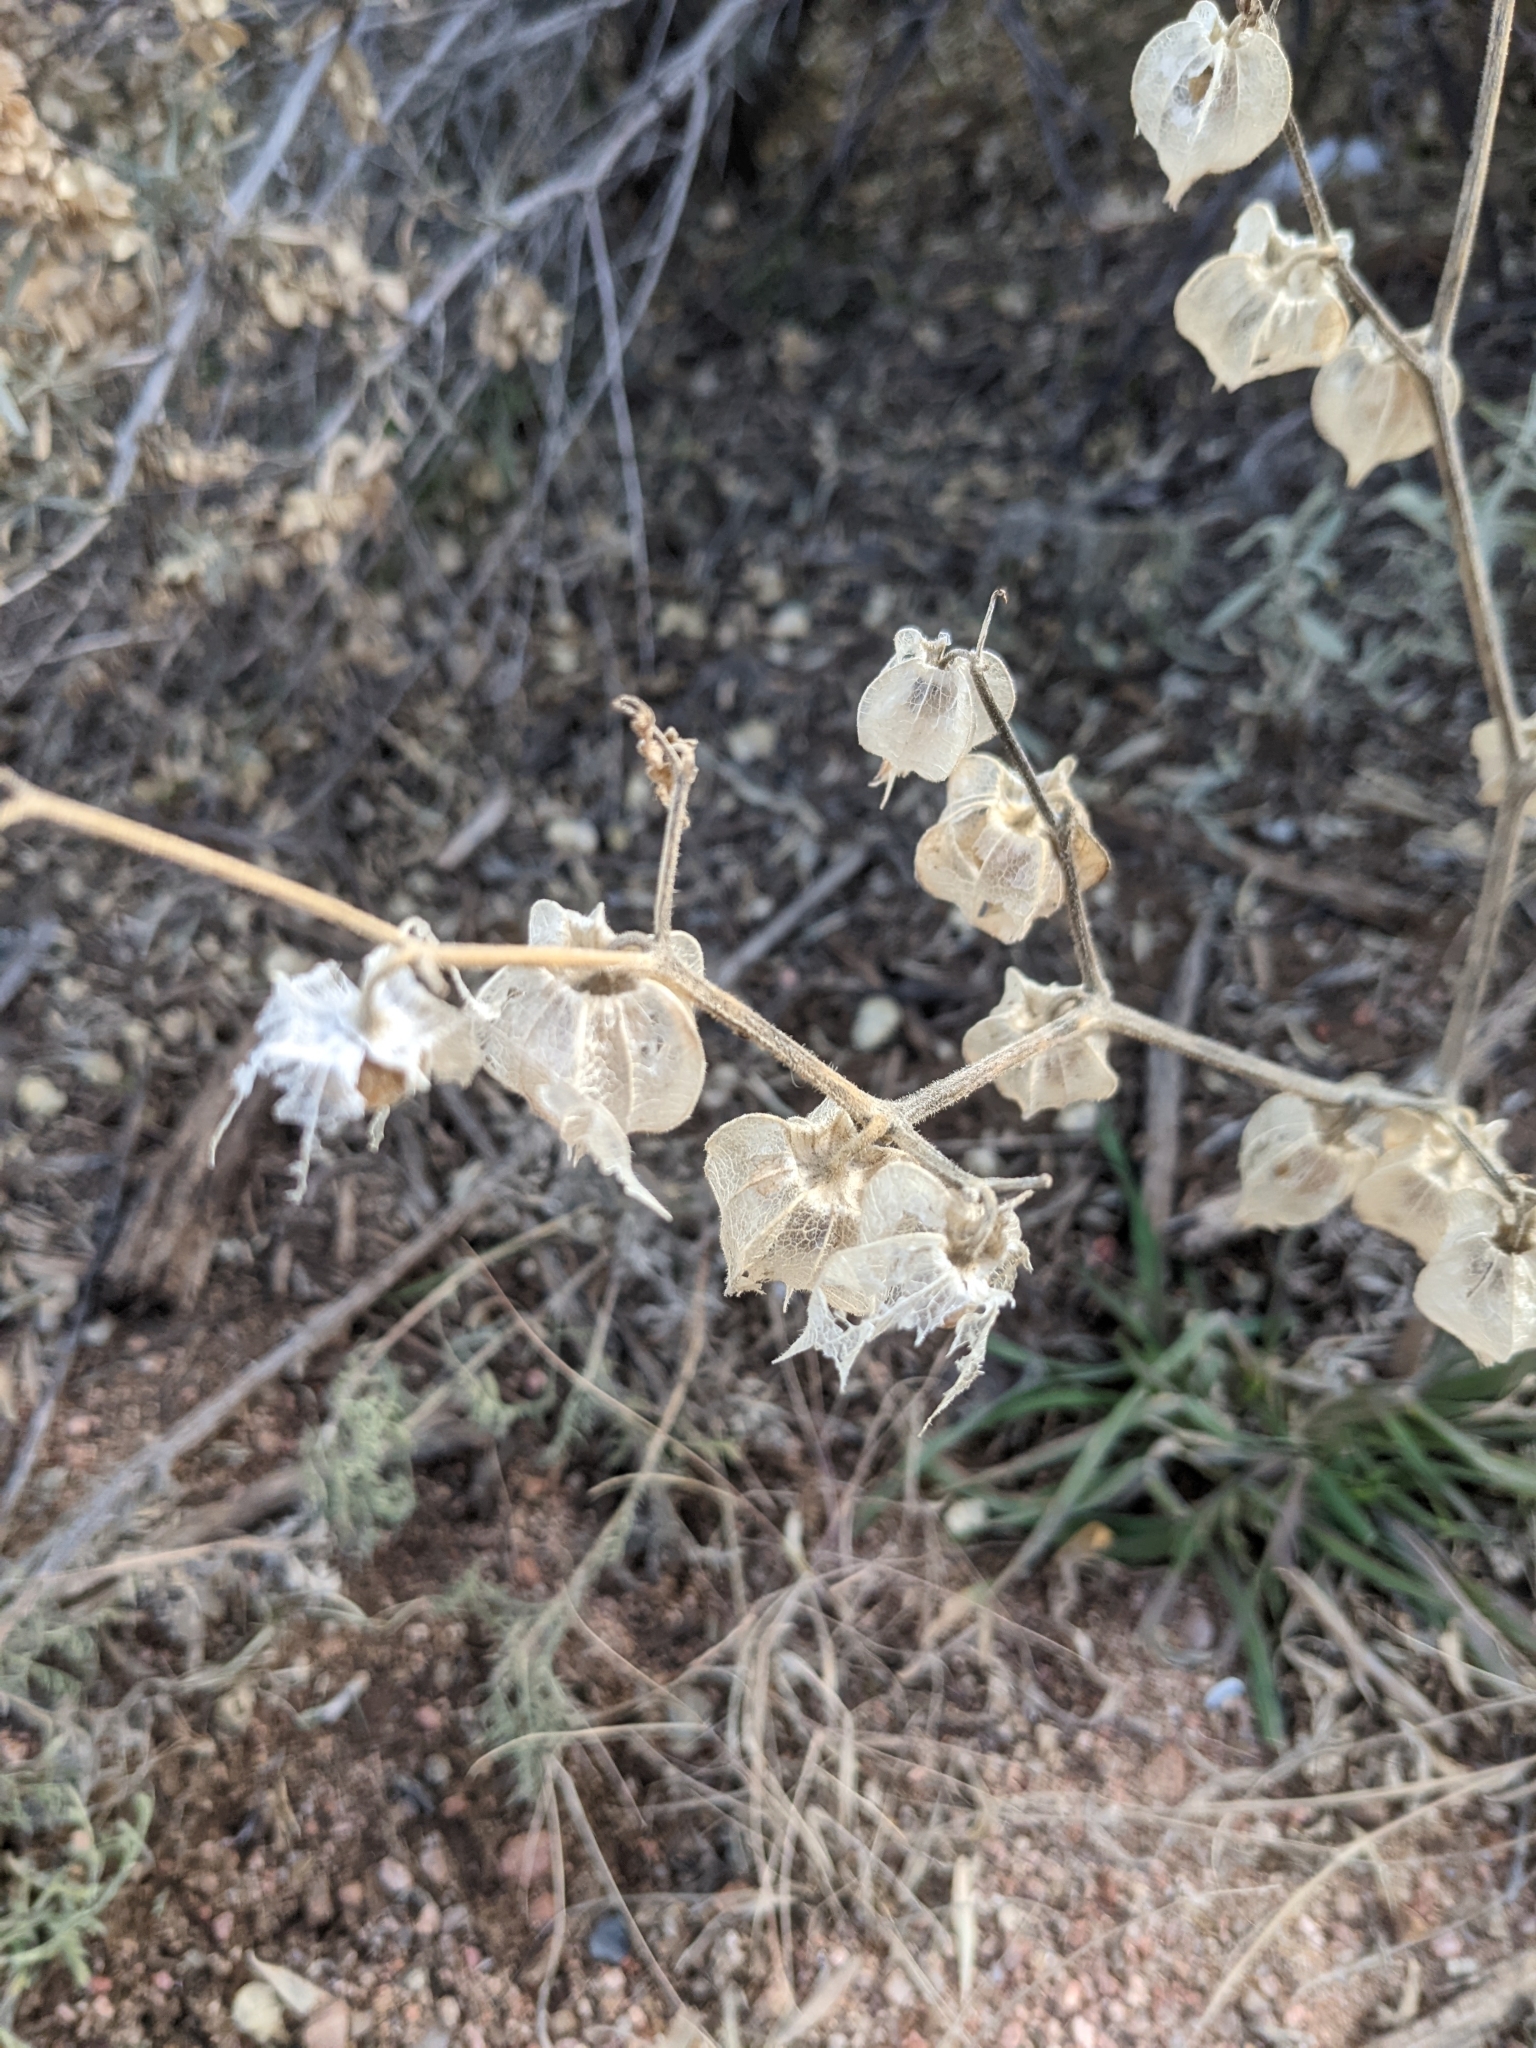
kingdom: Plantae
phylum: Tracheophyta
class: Magnoliopsida
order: Solanales
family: Solanaceae
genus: Physalis
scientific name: Physalis neomexicana
